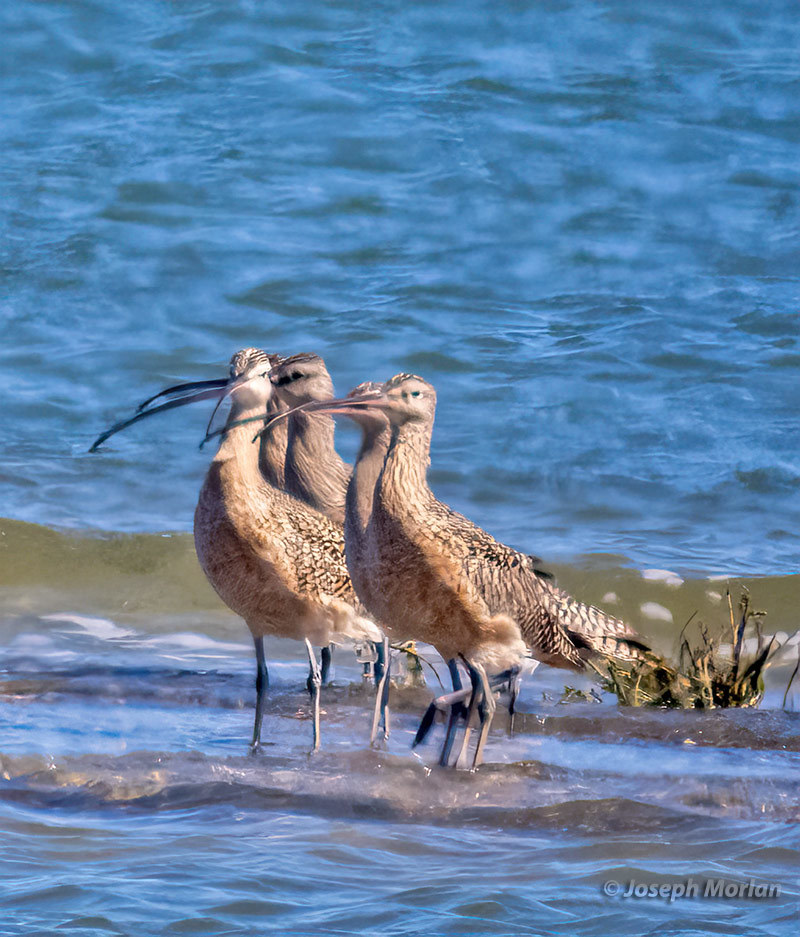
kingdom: Animalia
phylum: Chordata
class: Aves
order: Charadriiformes
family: Scolopacidae
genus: Numenius
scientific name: Numenius americanus
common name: Long-billed curlew
